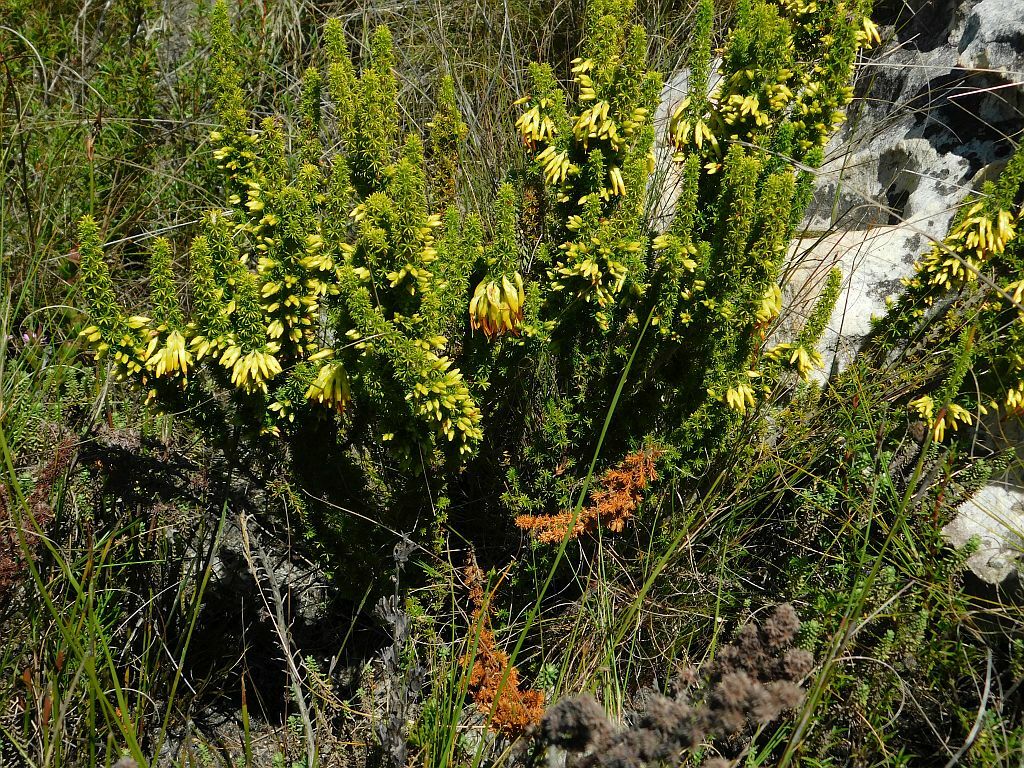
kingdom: Plantae
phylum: Tracheophyta
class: Magnoliopsida
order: Ericales
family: Ericaceae
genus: Erica
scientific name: Erica coccinea
